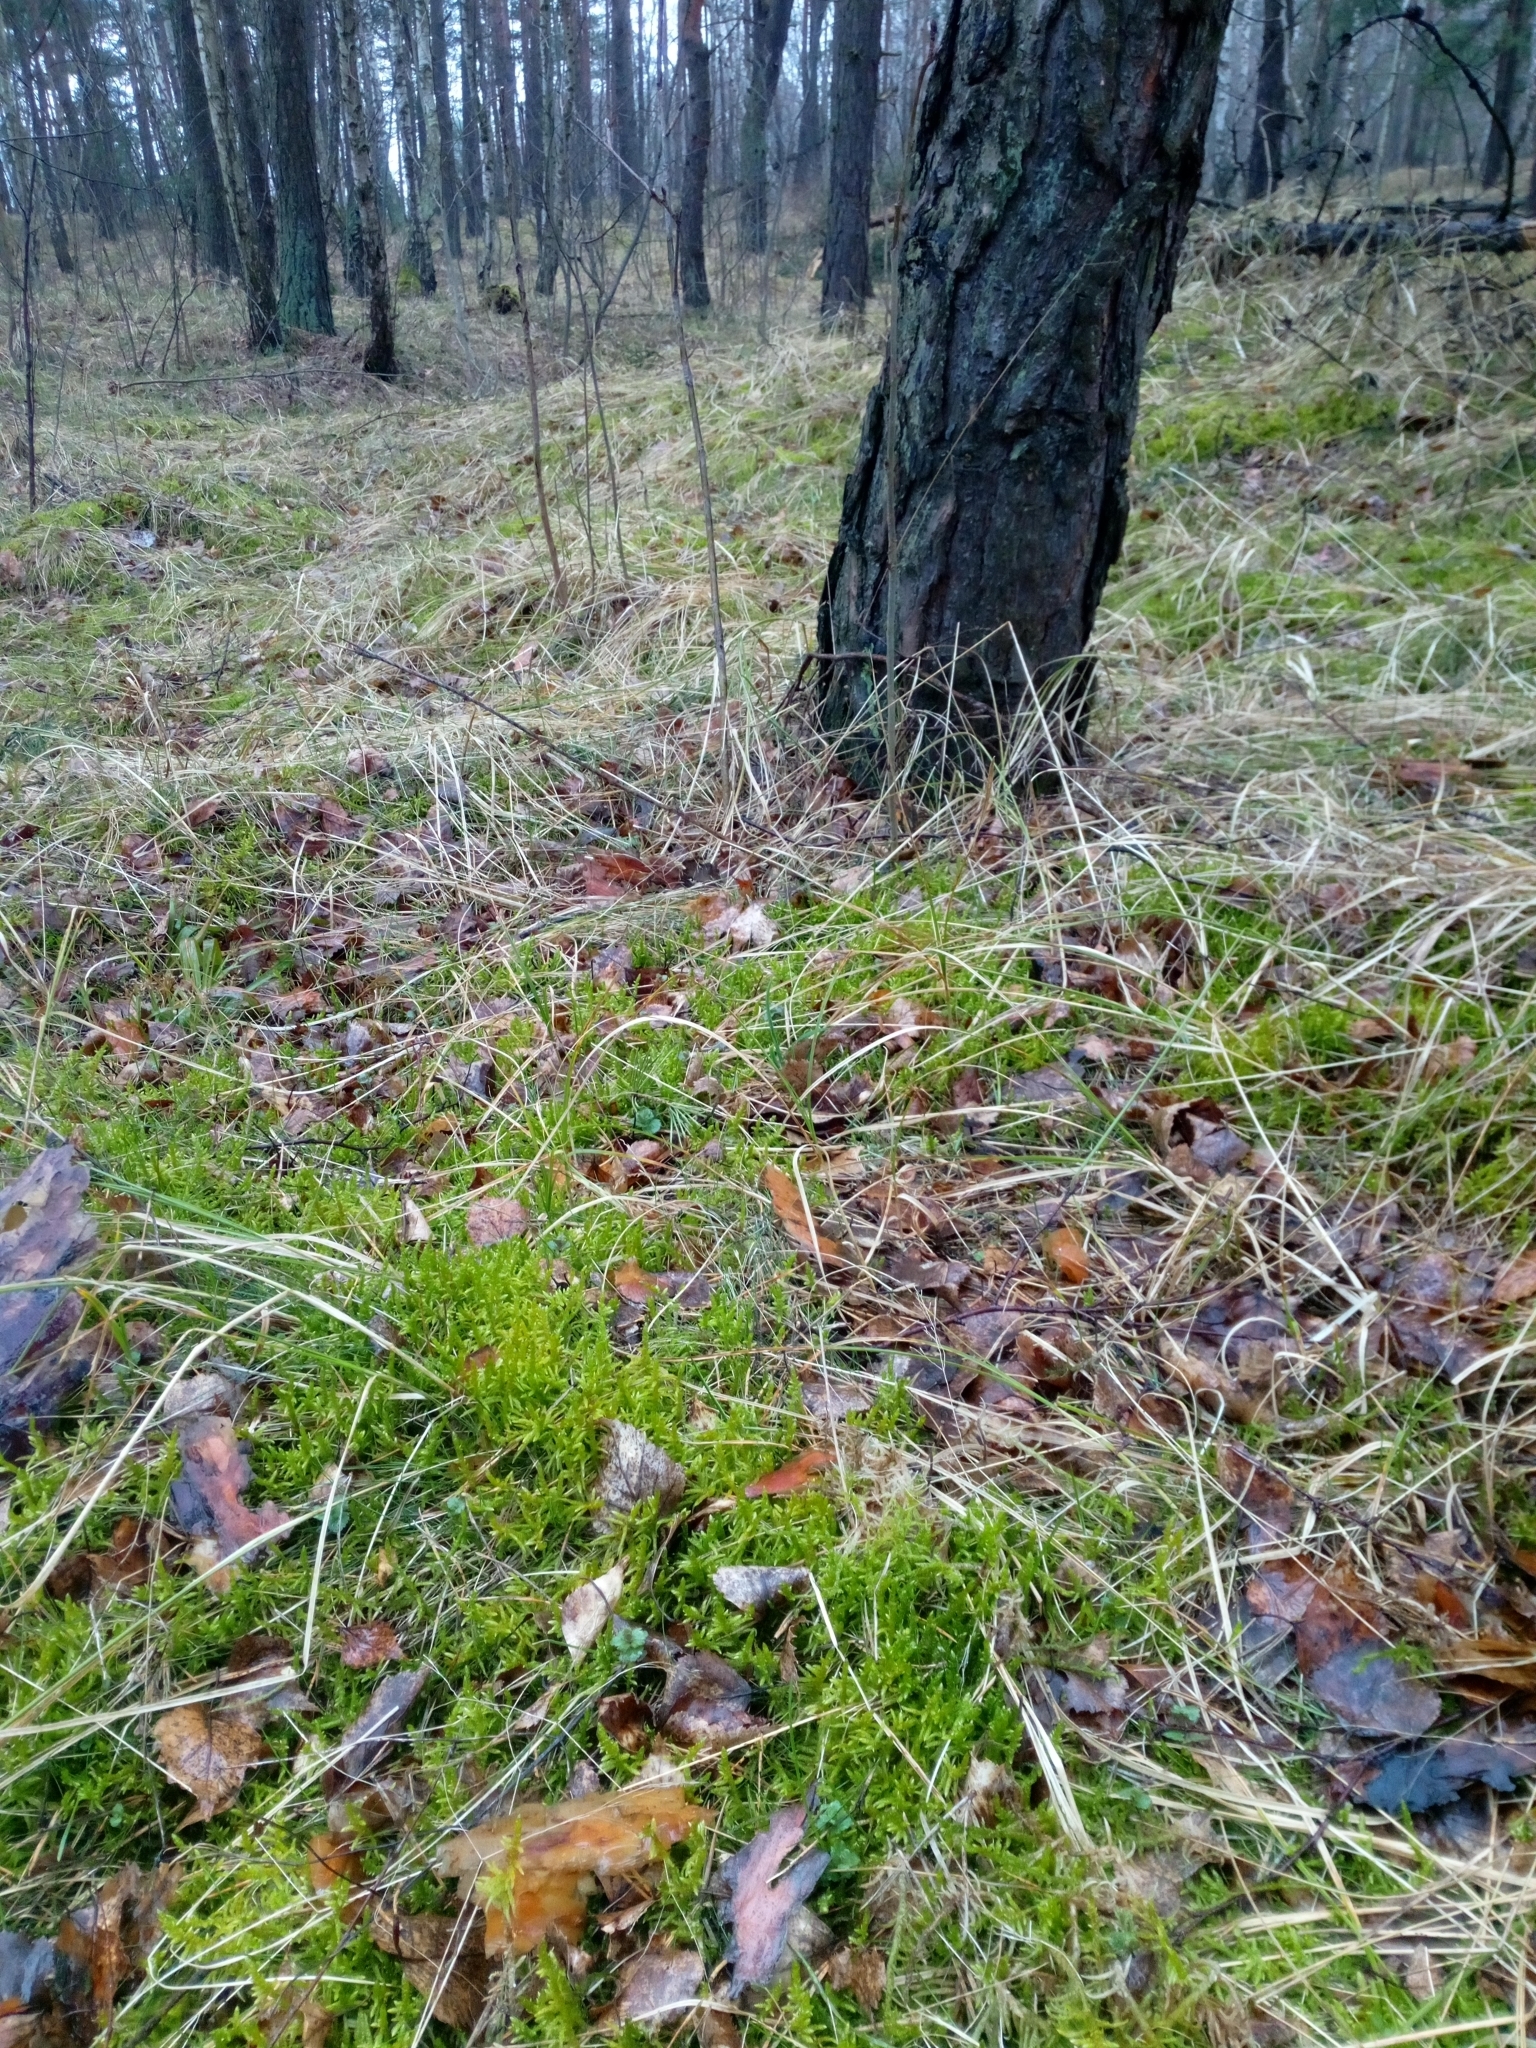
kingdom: Plantae
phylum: Bryophyta
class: Bryopsida
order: Hypnales
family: Brachytheciaceae
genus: Pseudoscleropodium
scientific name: Pseudoscleropodium purum
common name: Neat feather-moss
